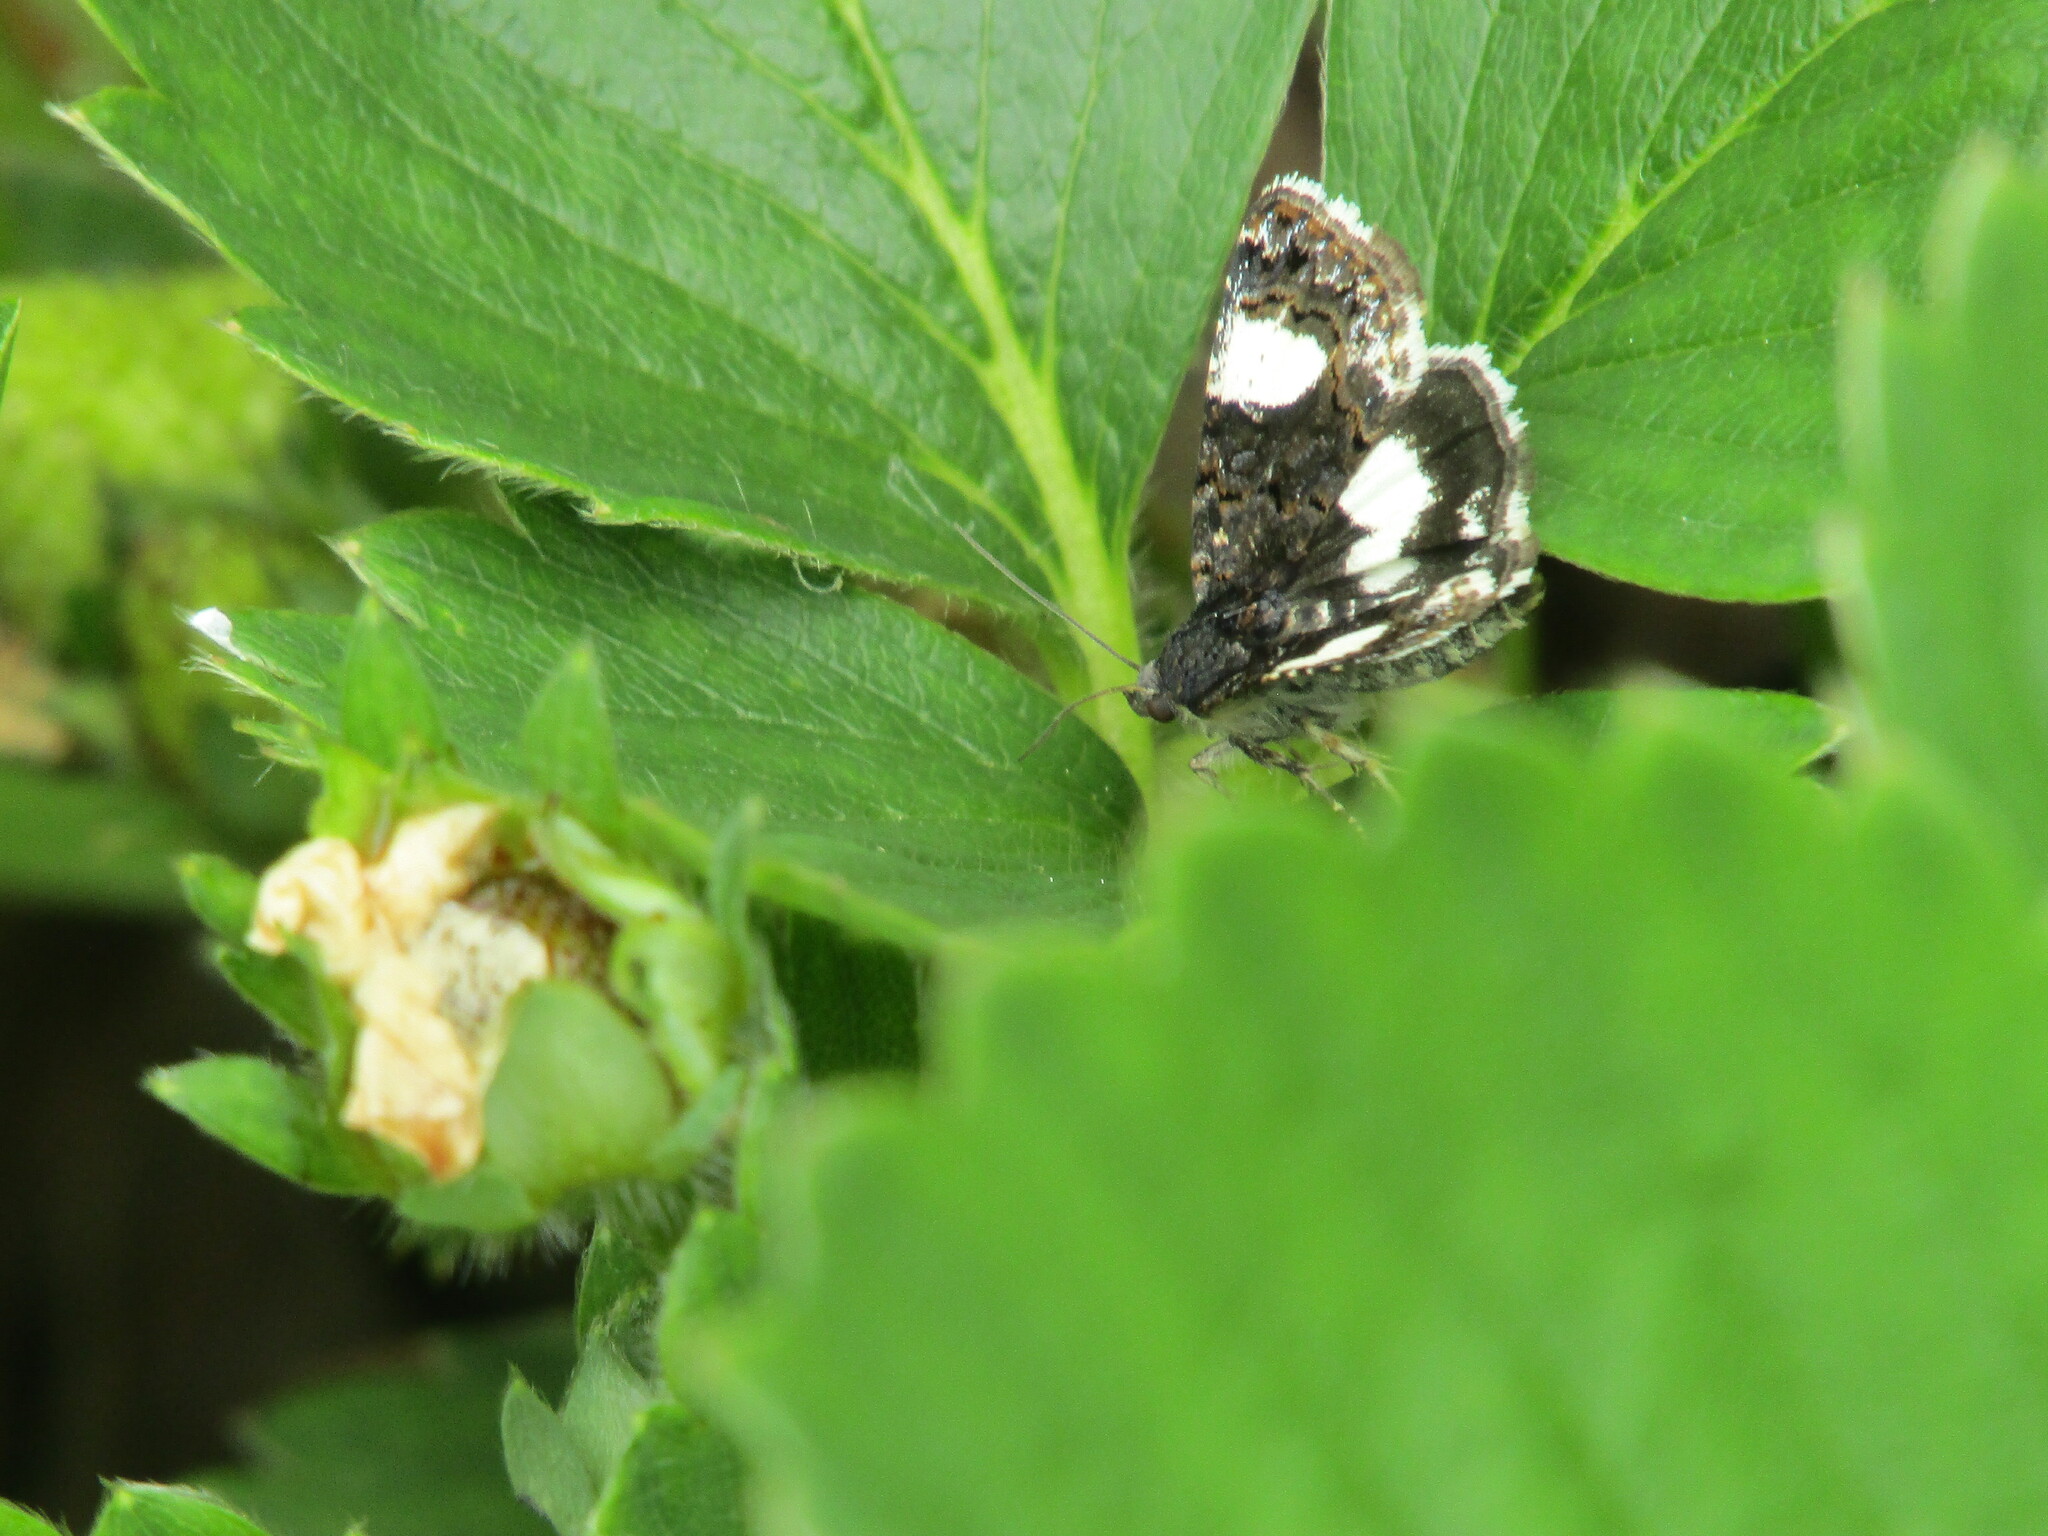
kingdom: Animalia
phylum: Arthropoda
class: Insecta
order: Lepidoptera
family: Erebidae
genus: Tyta
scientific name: Tyta luctuosa
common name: Four-spotted
